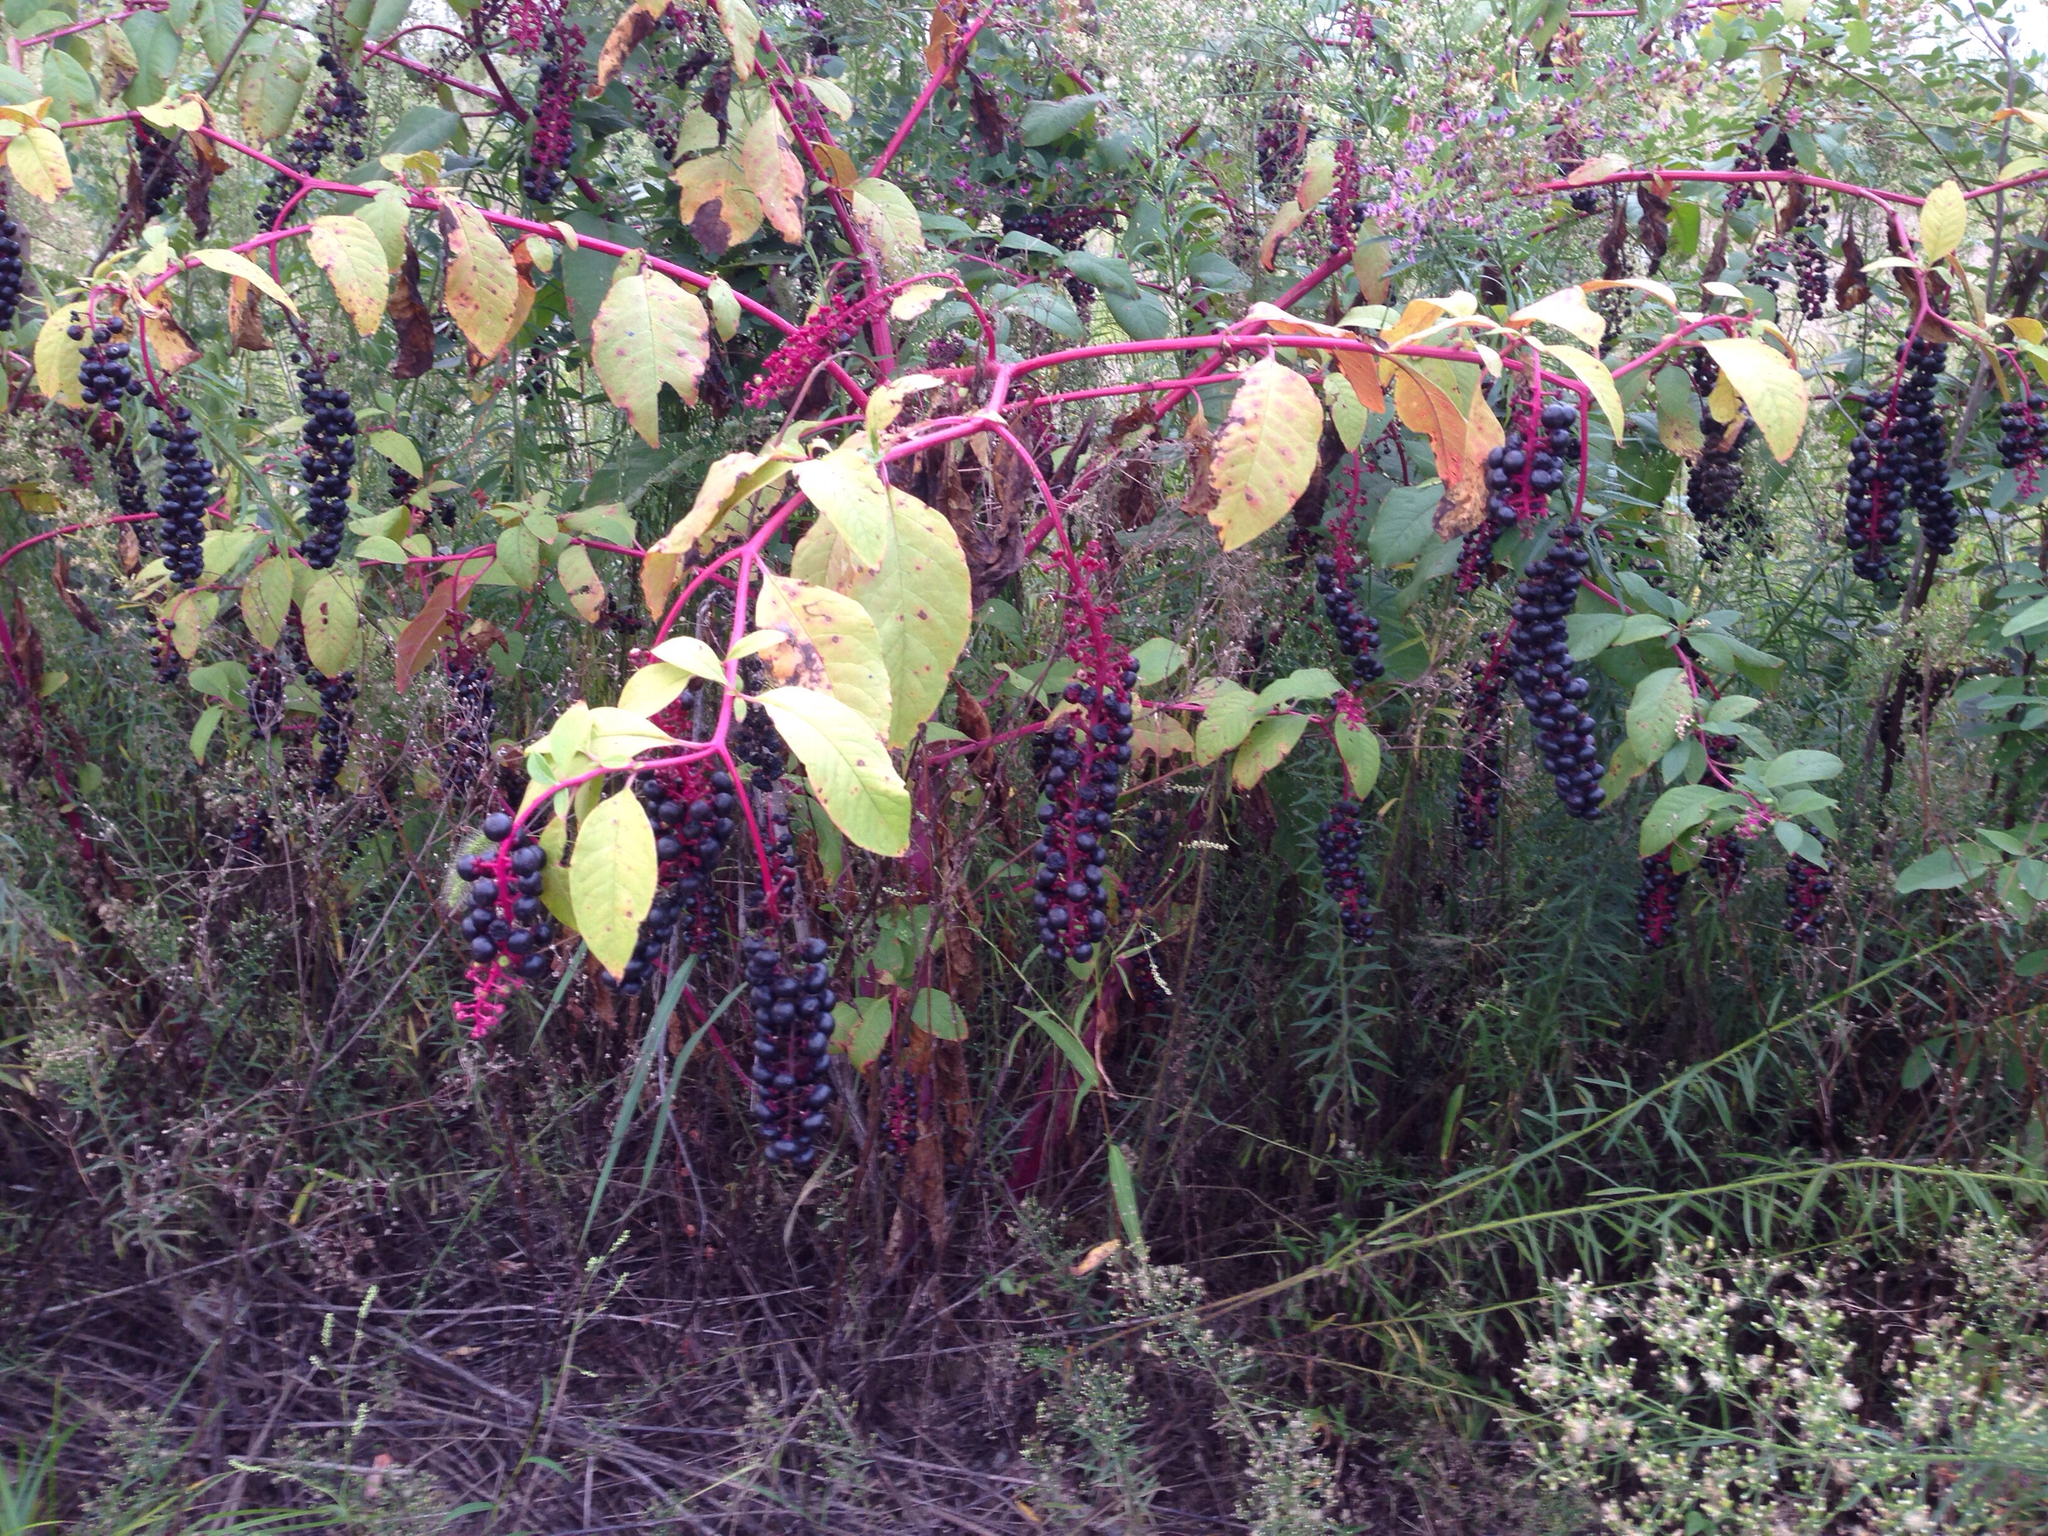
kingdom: Plantae
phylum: Tracheophyta
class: Magnoliopsida
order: Caryophyllales
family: Phytolaccaceae
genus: Phytolacca
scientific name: Phytolacca americana
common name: American pokeweed
